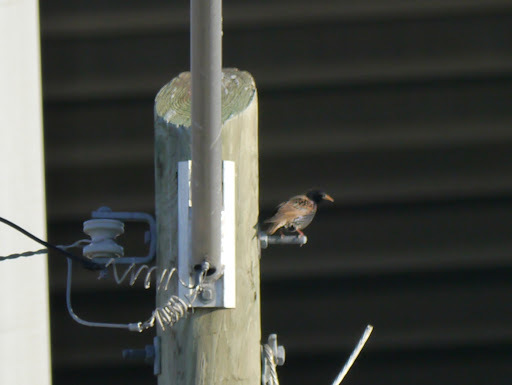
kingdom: Animalia
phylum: Chordata
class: Aves
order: Passeriformes
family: Sturnidae
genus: Sturnus
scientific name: Sturnus vulgaris
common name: Common starling
